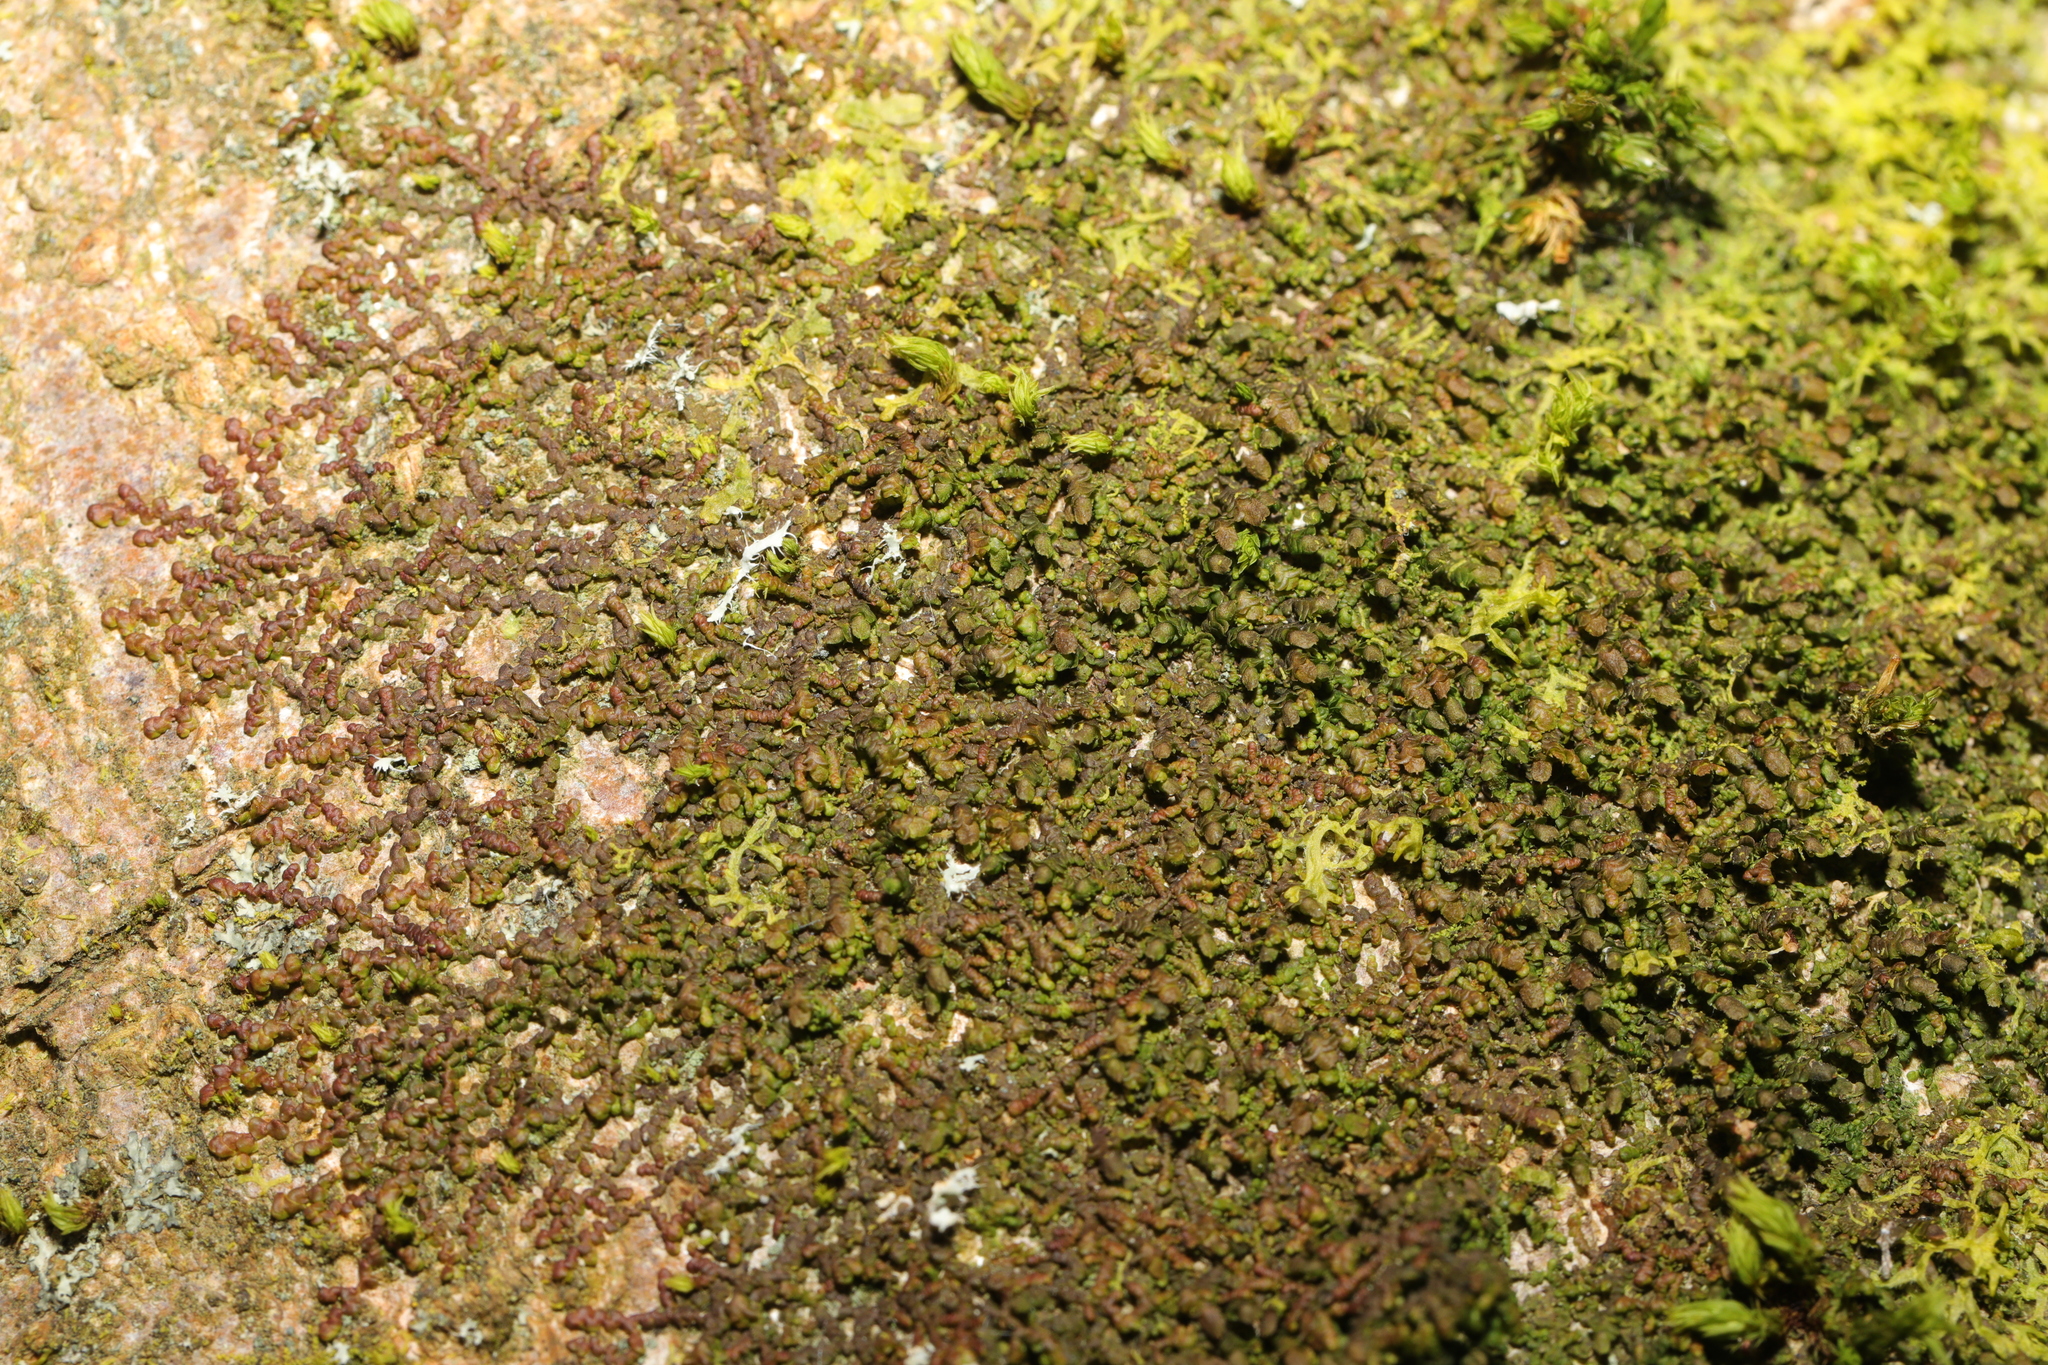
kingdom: Plantae
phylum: Marchantiophyta
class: Jungermanniopsida
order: Porellales
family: Frullaniaceae
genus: Frullania
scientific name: Frullania dilatata
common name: Dilated scalewort
